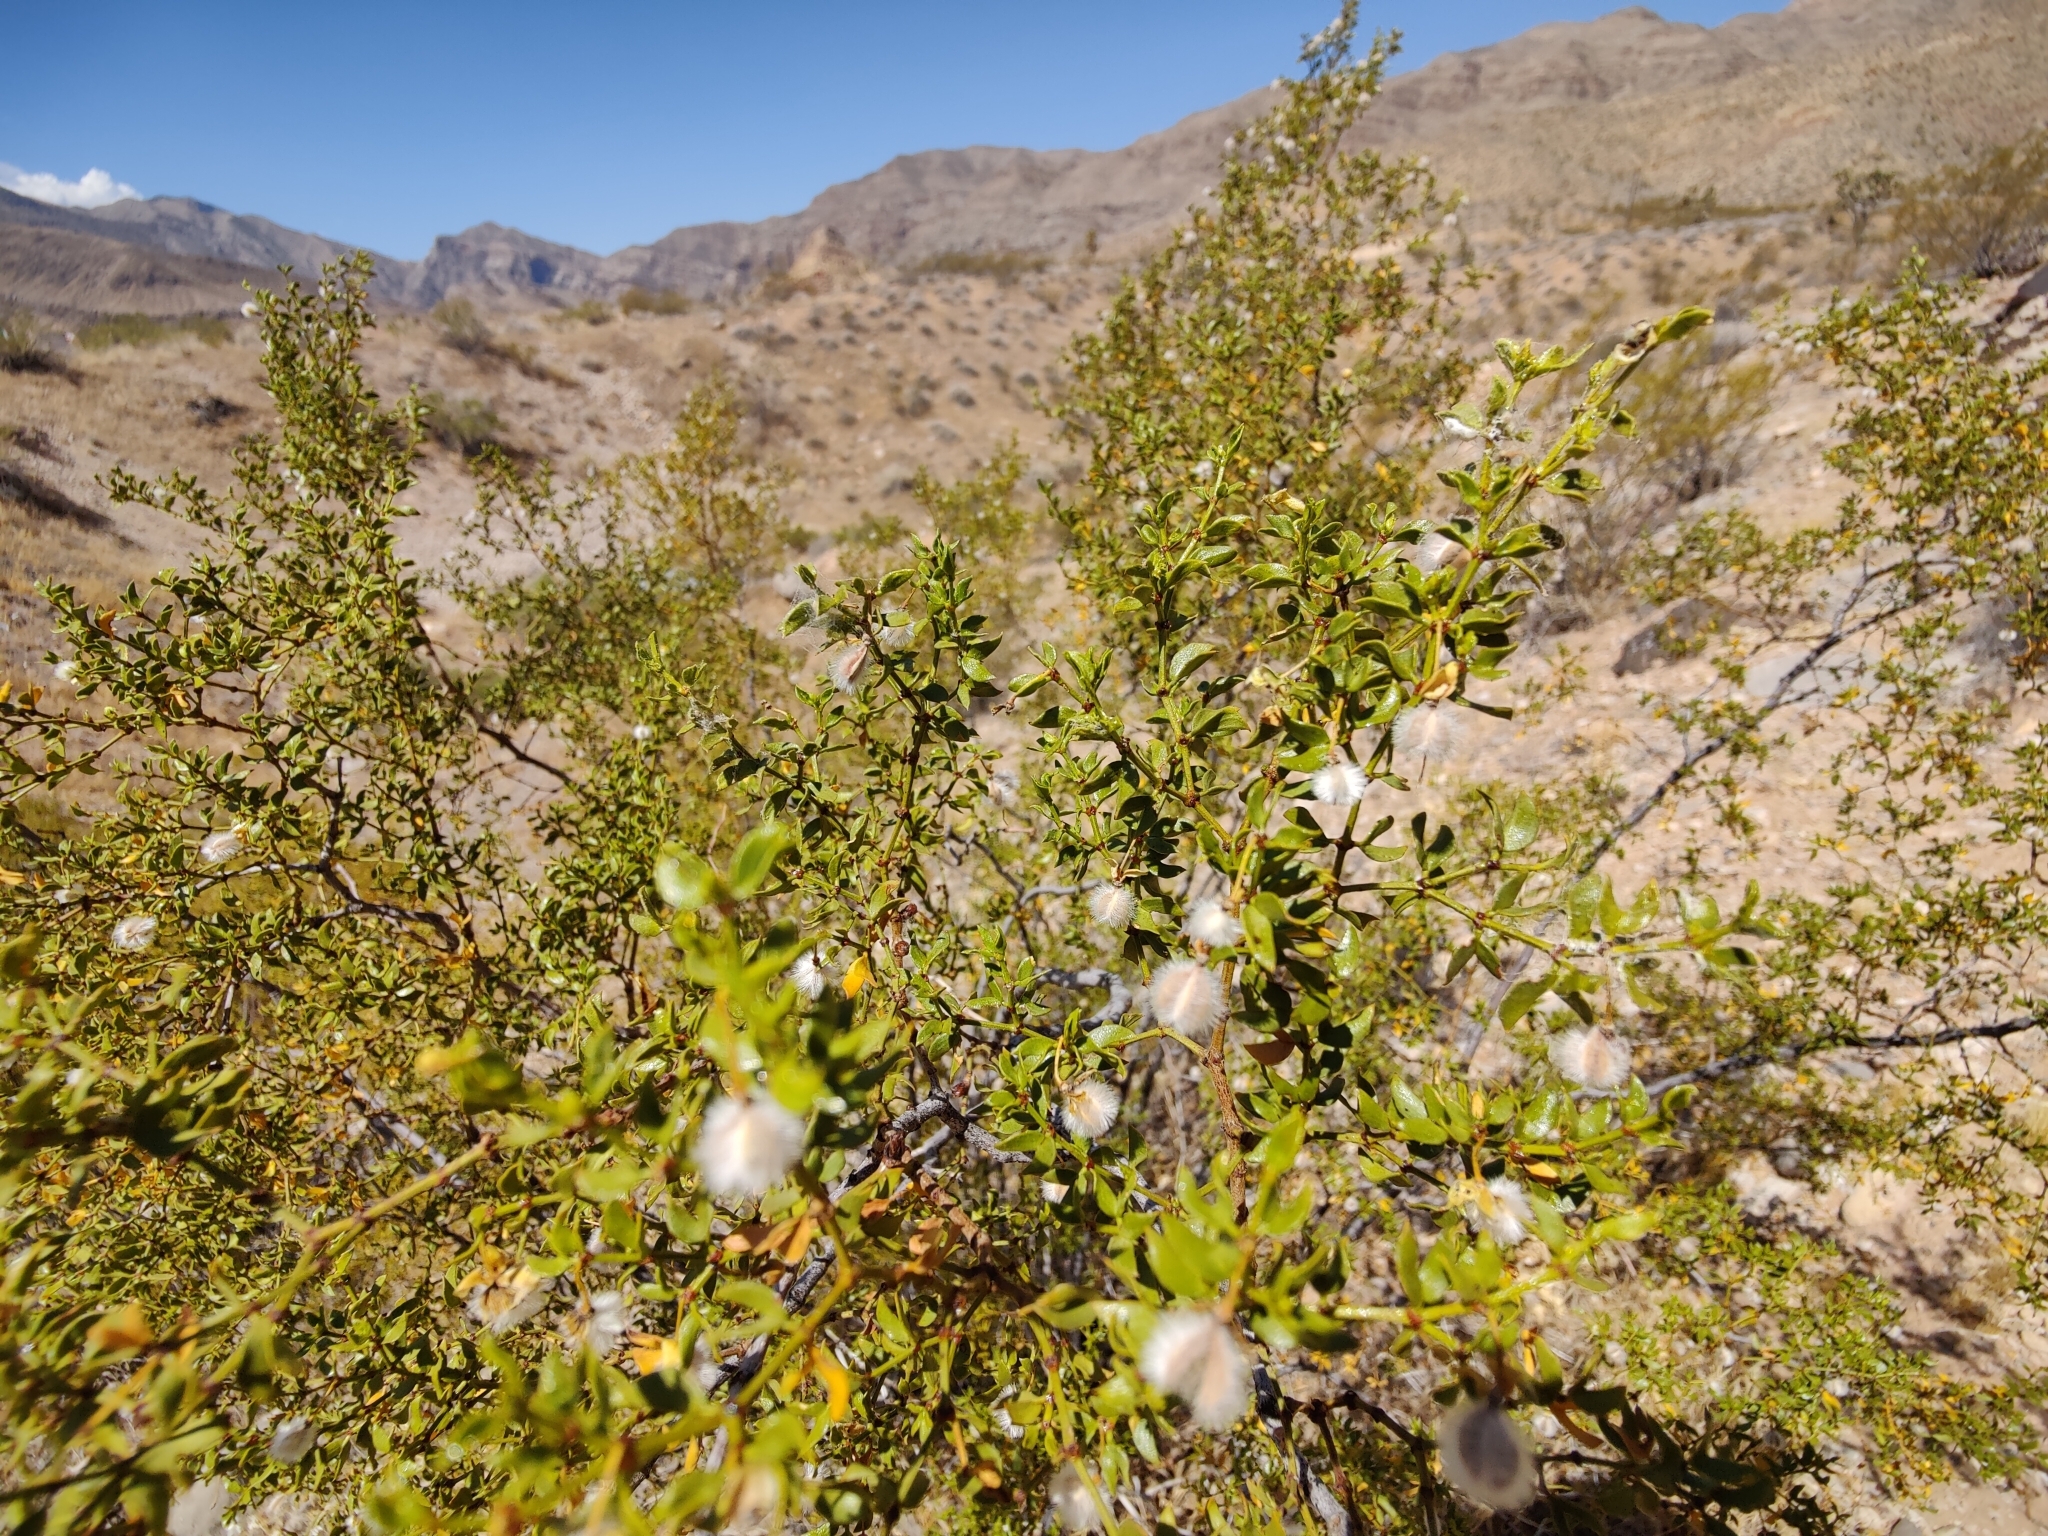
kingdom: Plantae
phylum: Tracheophyta
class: Magnoliopsida
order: Zygophyllales
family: Zygophyllaceae
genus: Larrea
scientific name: Larrea tridentata
